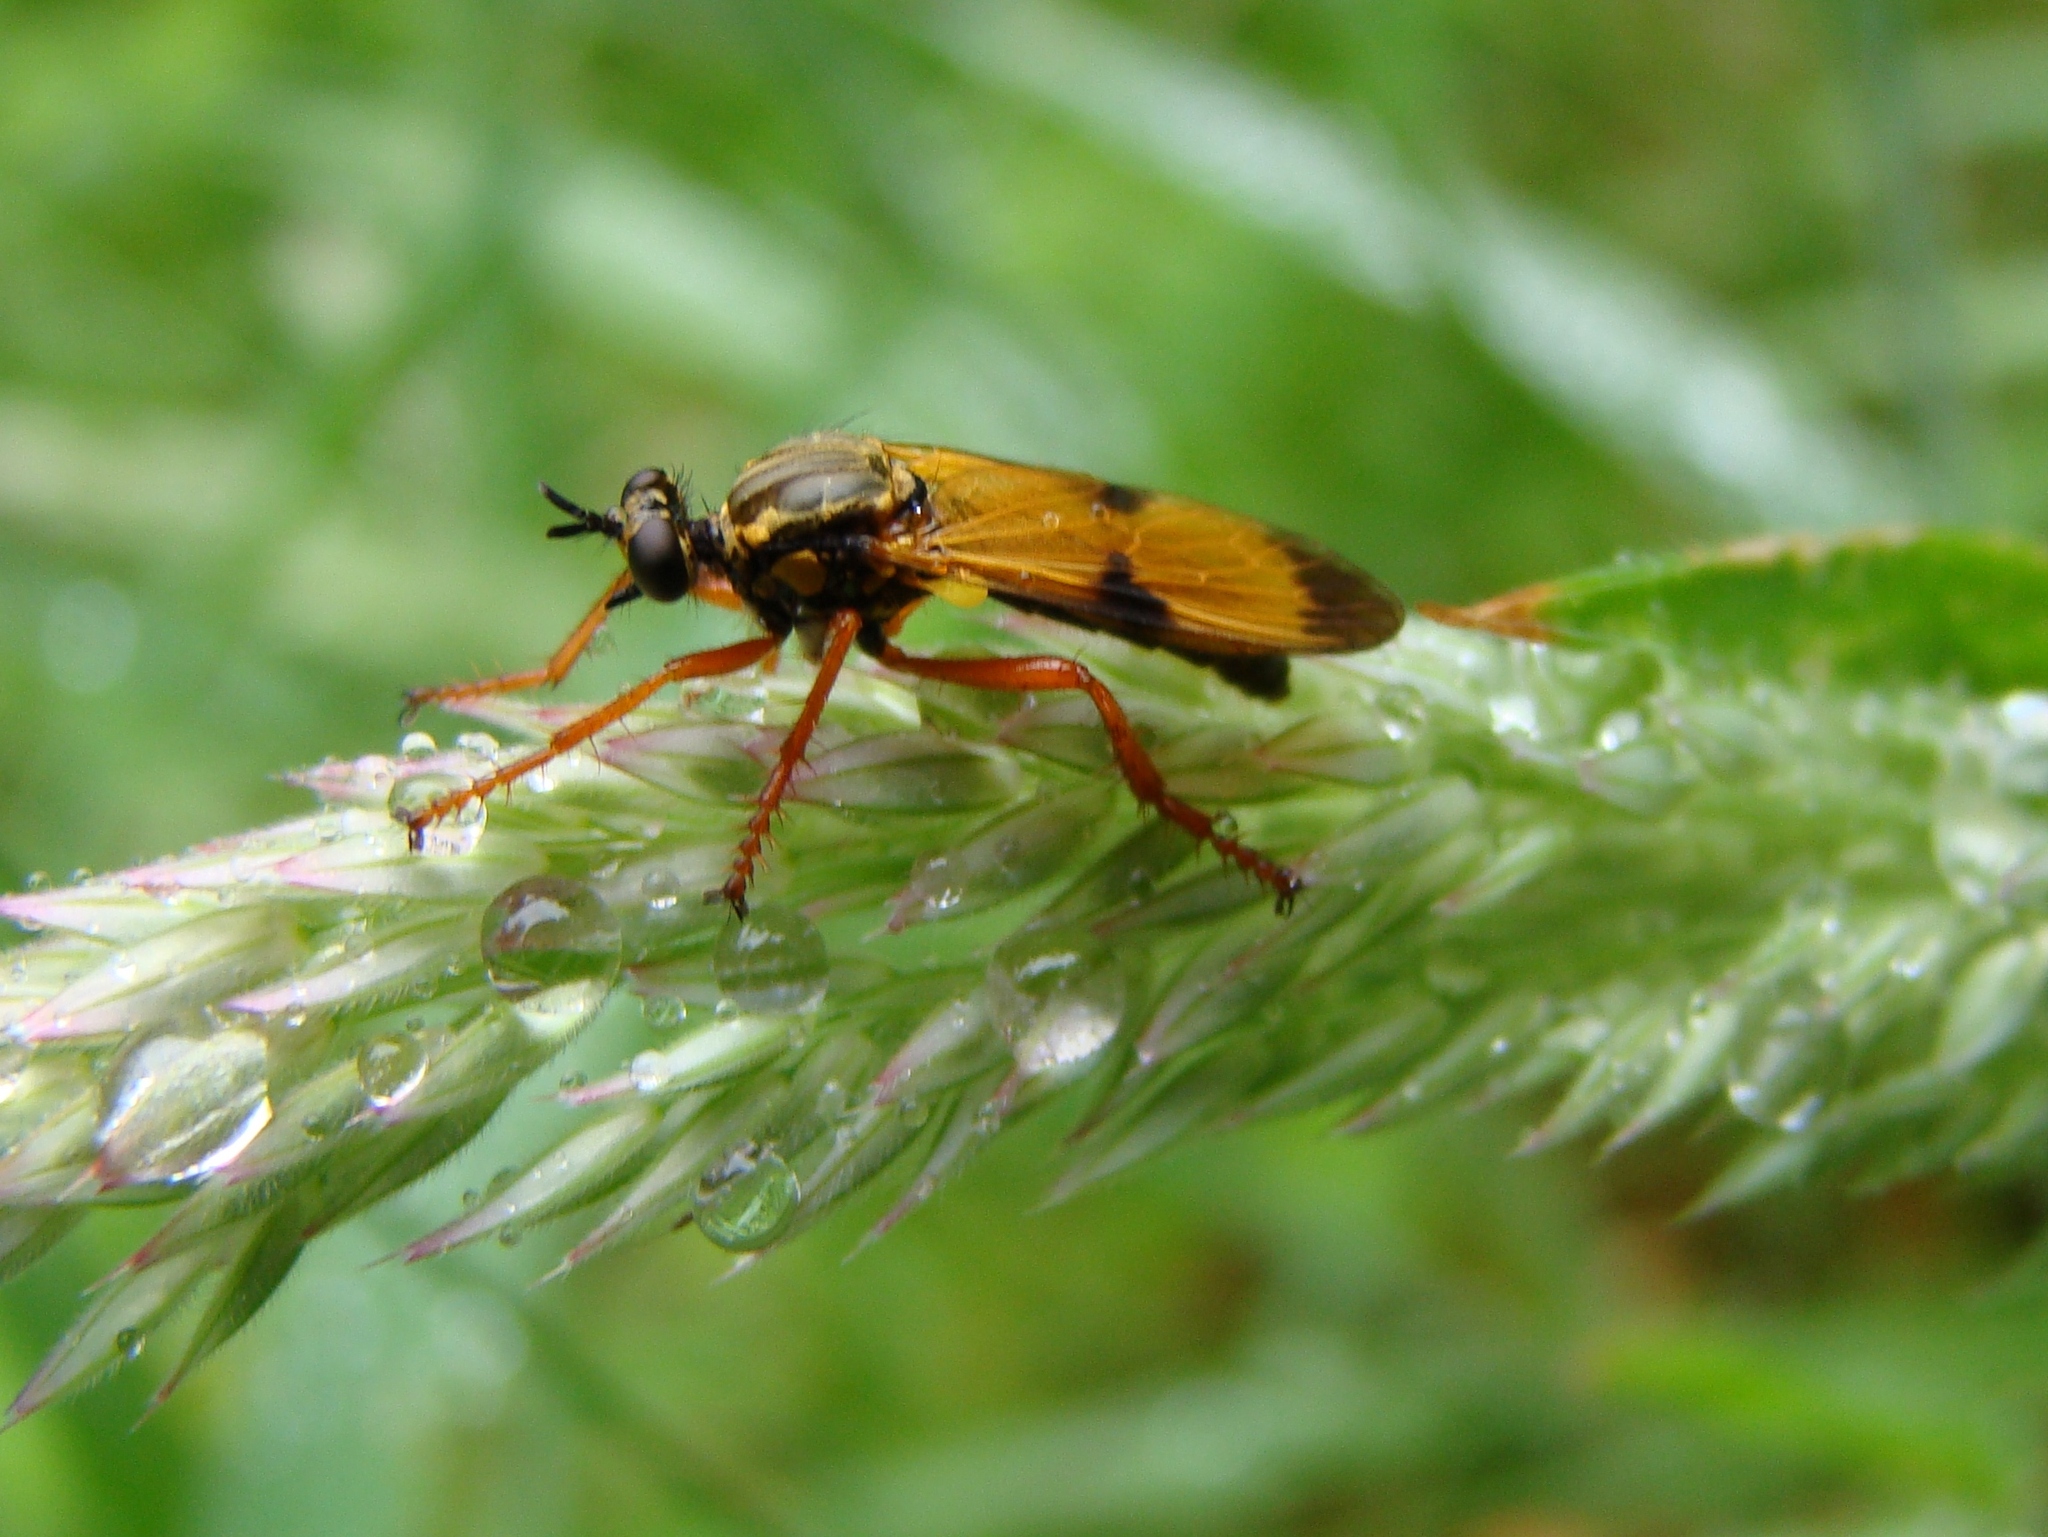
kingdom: Animalia
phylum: Arthropoda
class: Insecta
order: Diptera
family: Asilidae
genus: Saropogon
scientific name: Saropogon extenuatus
